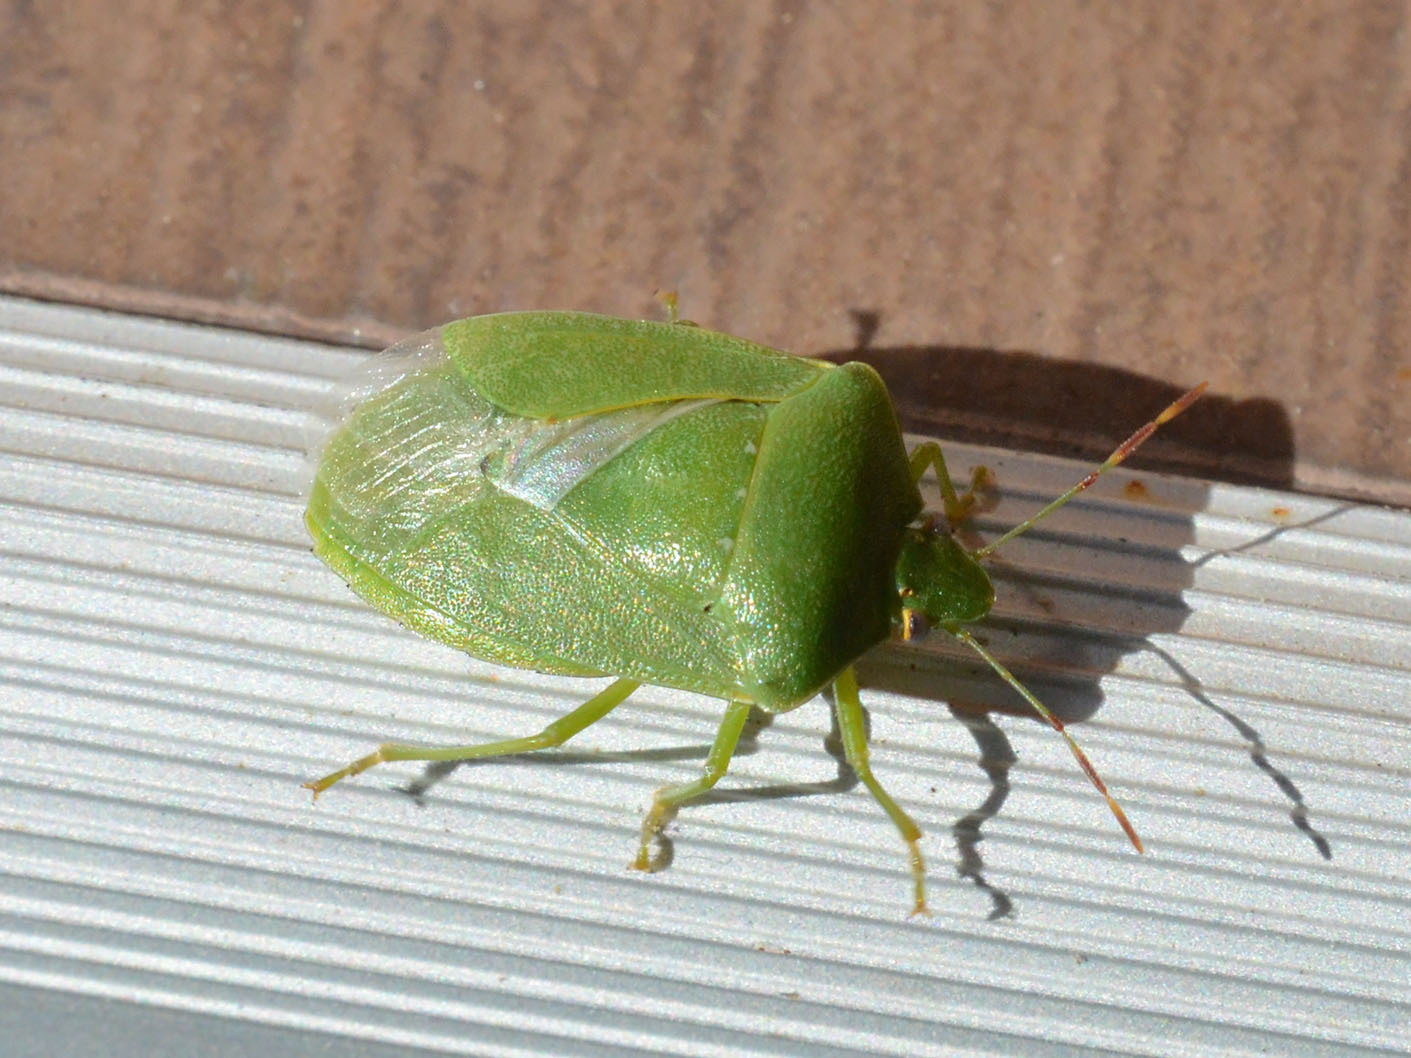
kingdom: Animalia
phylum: Arthropoda
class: Insecta
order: Hemiptera
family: Pentatomidae
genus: Nezara
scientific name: Nezara viridula
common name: Southern green stink bug
